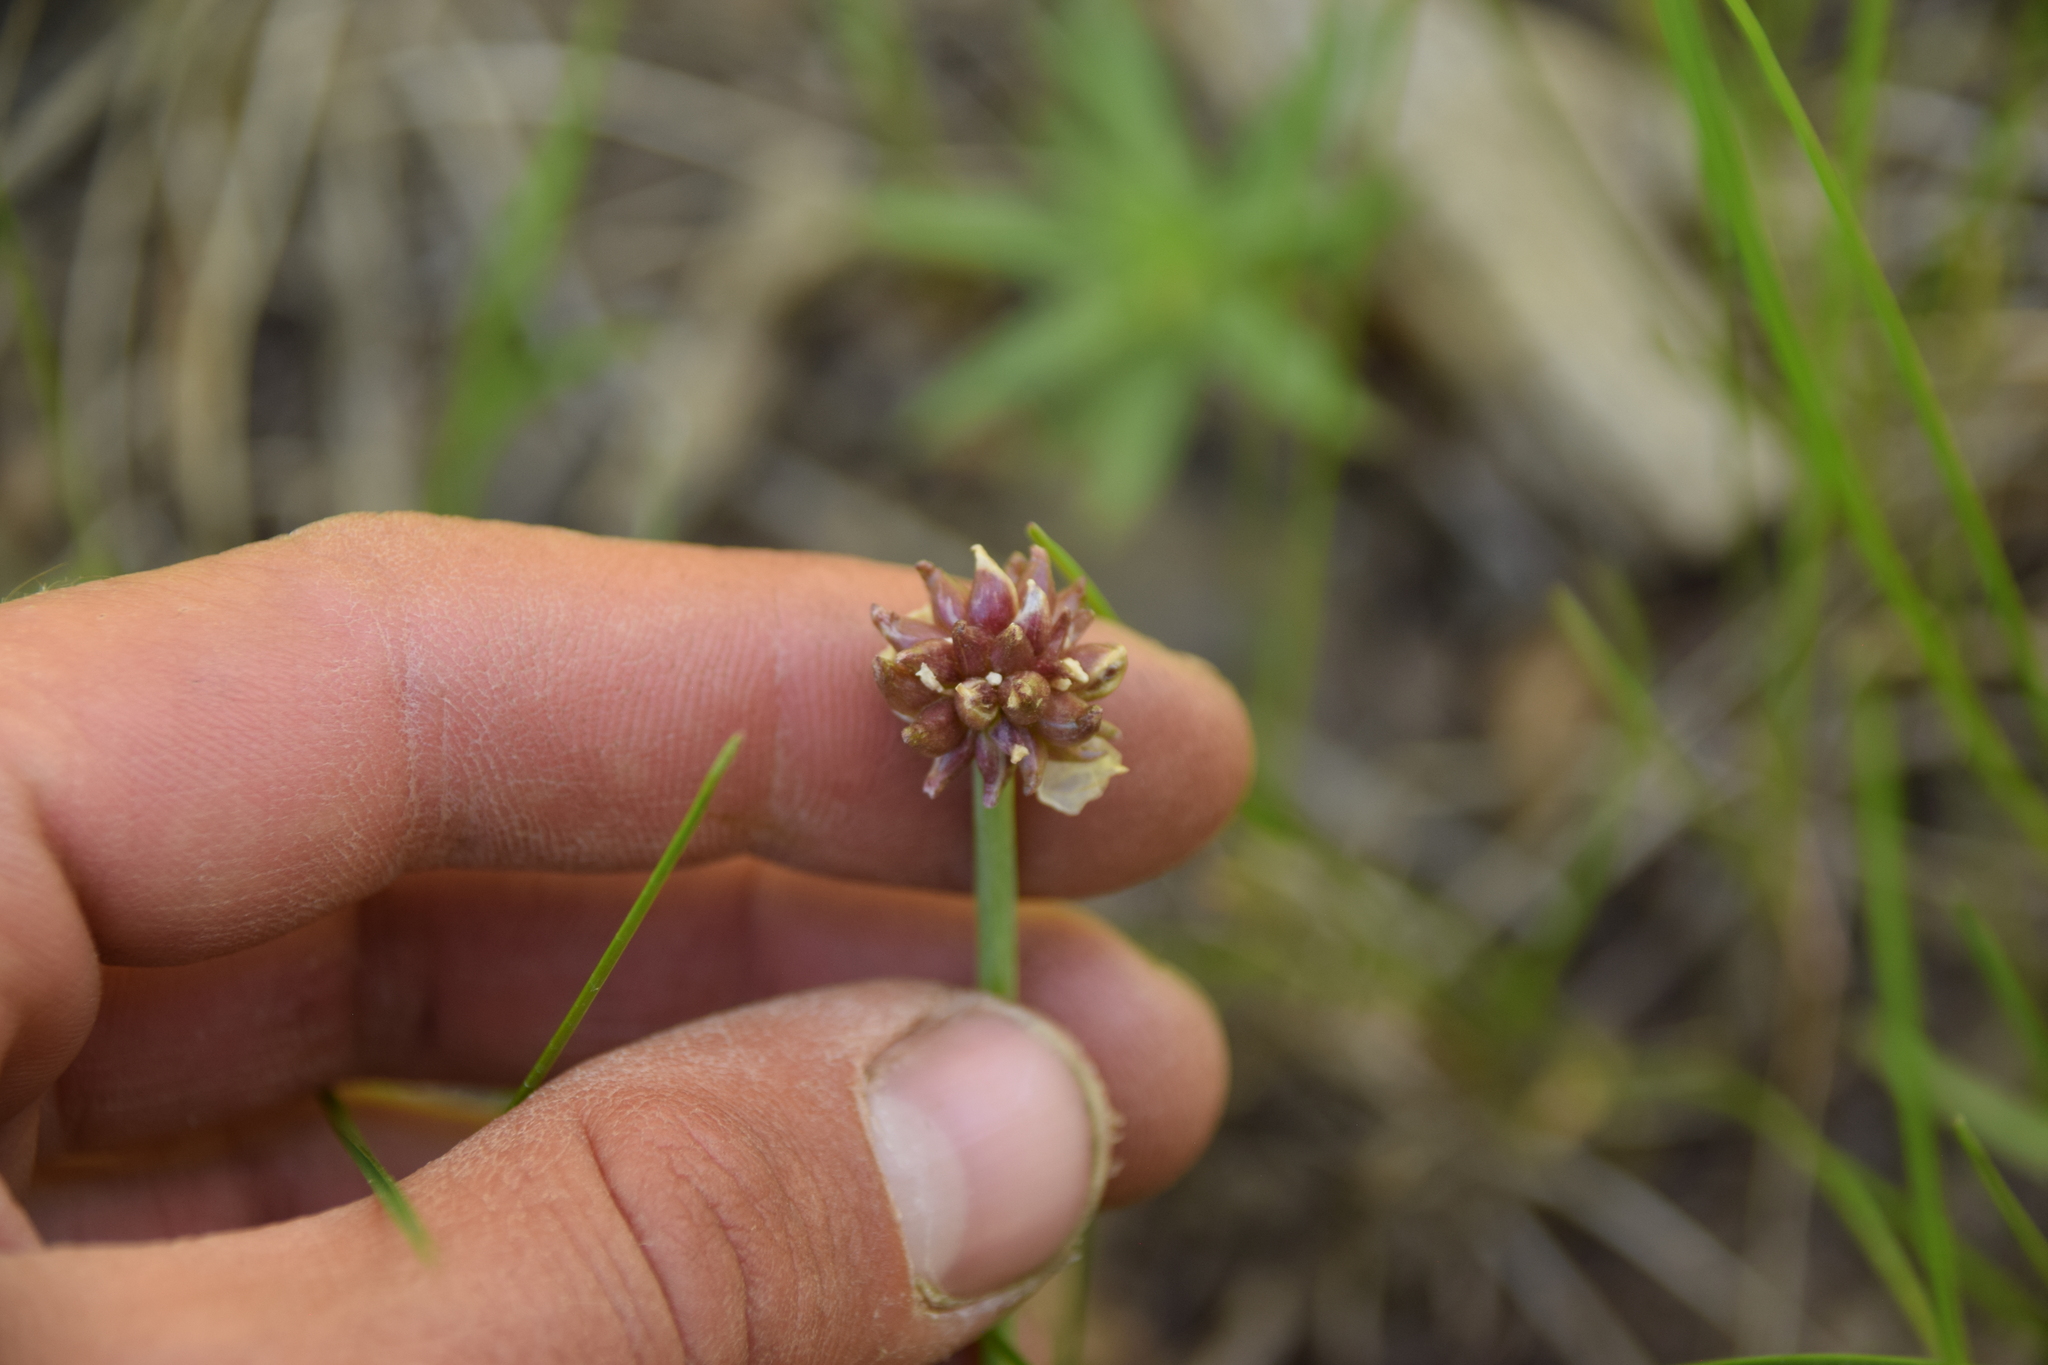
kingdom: Plantae
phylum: Tracheophyta
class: Liliopsida
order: Asparagales
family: Amaryllidaceae
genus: Allium
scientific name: Allium geyeri
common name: Geyer's onion
